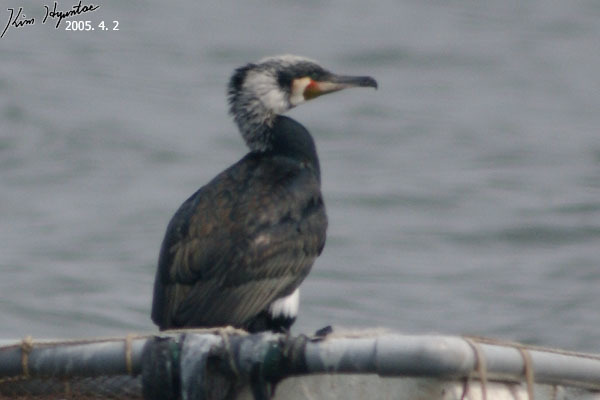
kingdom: Animalia
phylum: Chordata
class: Aves
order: Suliformes
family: Phalacrocoracidae
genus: Phalacrocorax
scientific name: Phalacrocorax carbo
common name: Great cormorant
